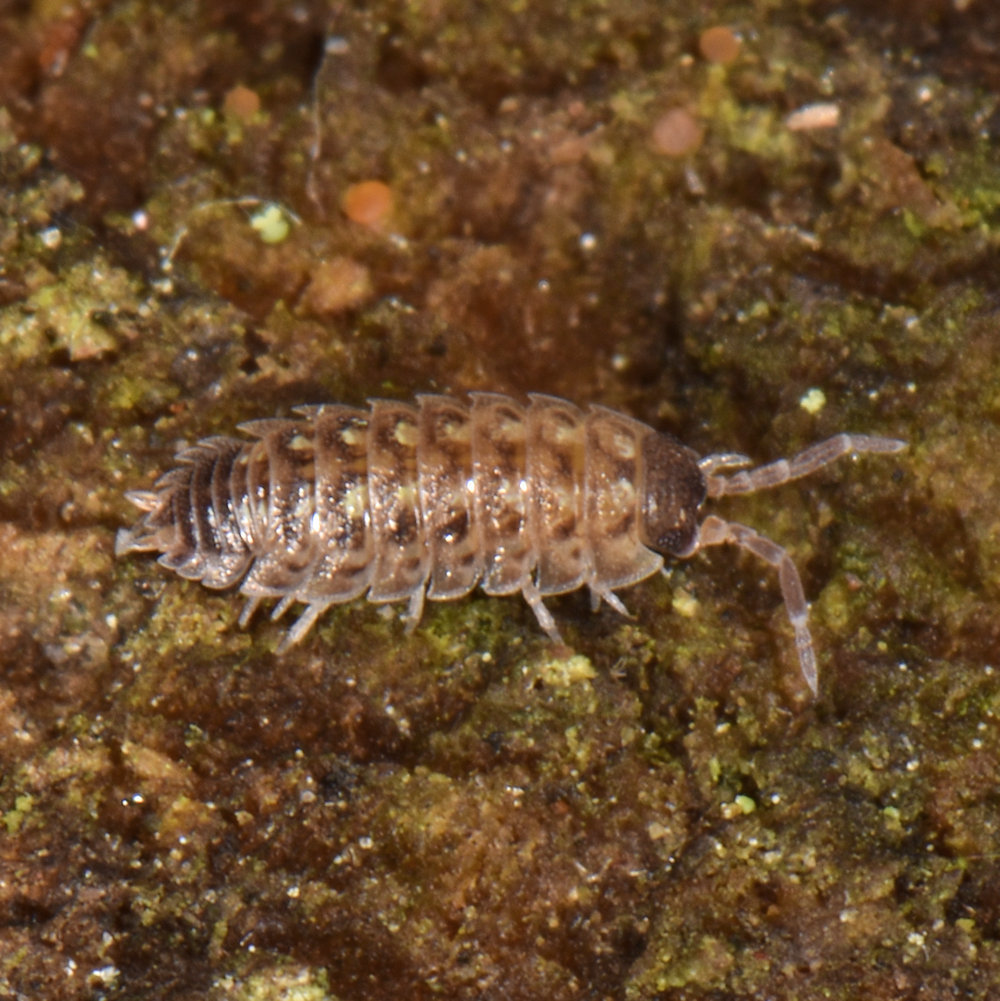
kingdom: Animalia
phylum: Arthropoda
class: Malacostraca
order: Isopoda
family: Porcellionidae
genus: Porcellio
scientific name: Porcellio spinicornis
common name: Painted woodlouse
